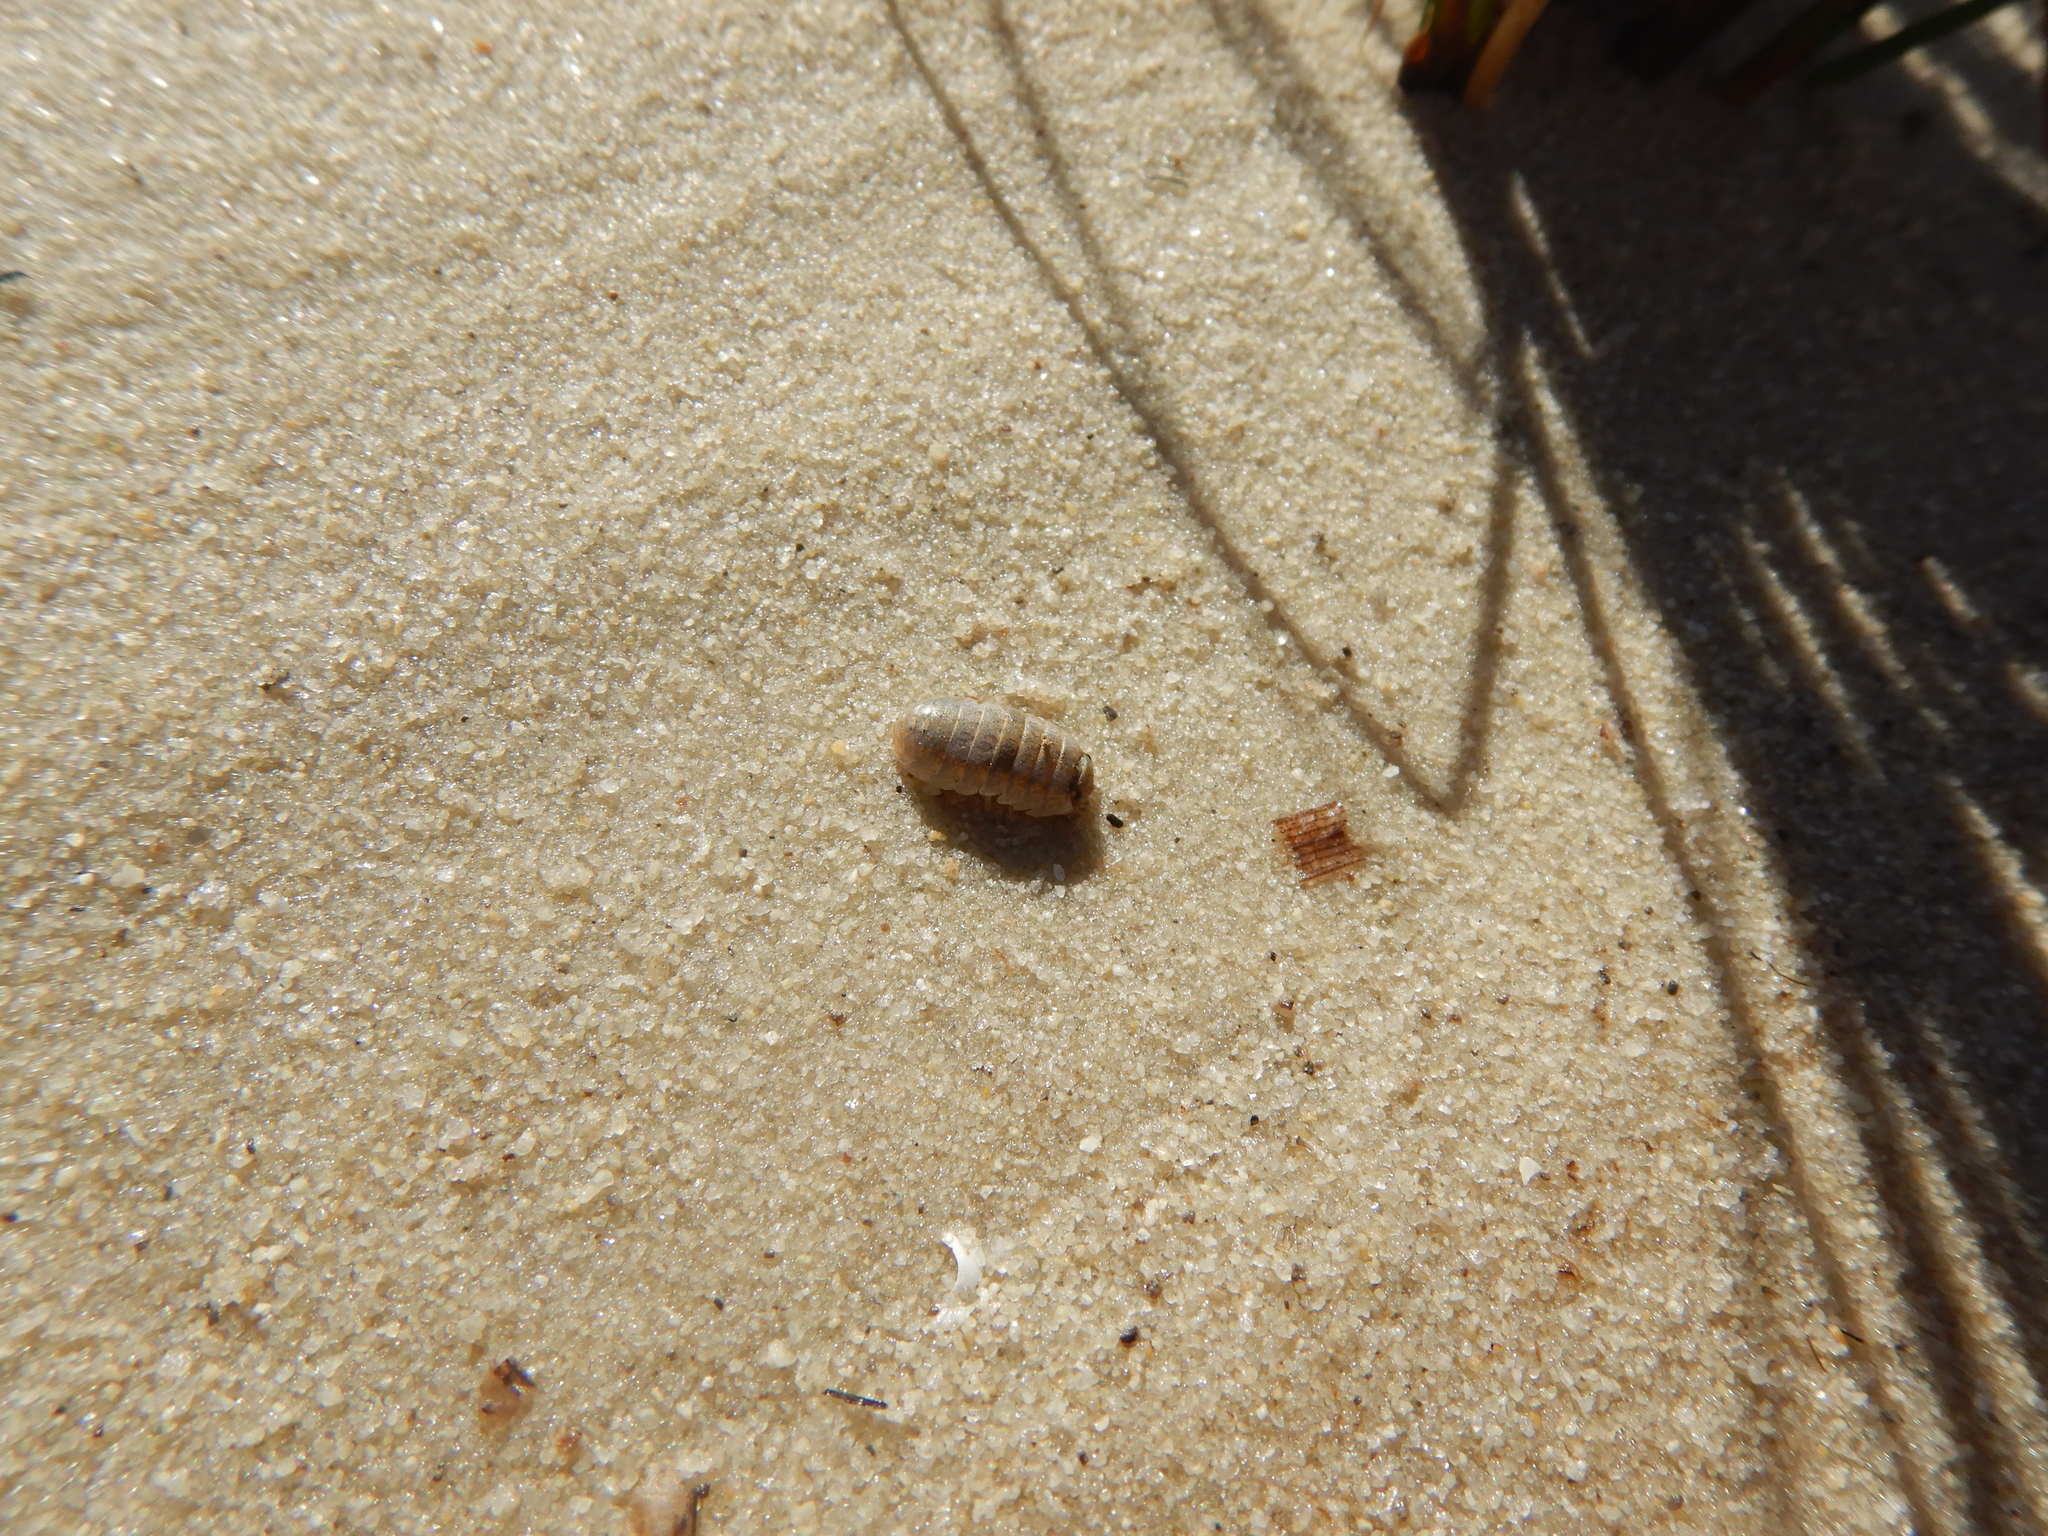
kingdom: Animalia
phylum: Arthropoda
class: Malacostraca
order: Isopoda
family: Tylidae
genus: Tylos
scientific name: Tylos ponticus
